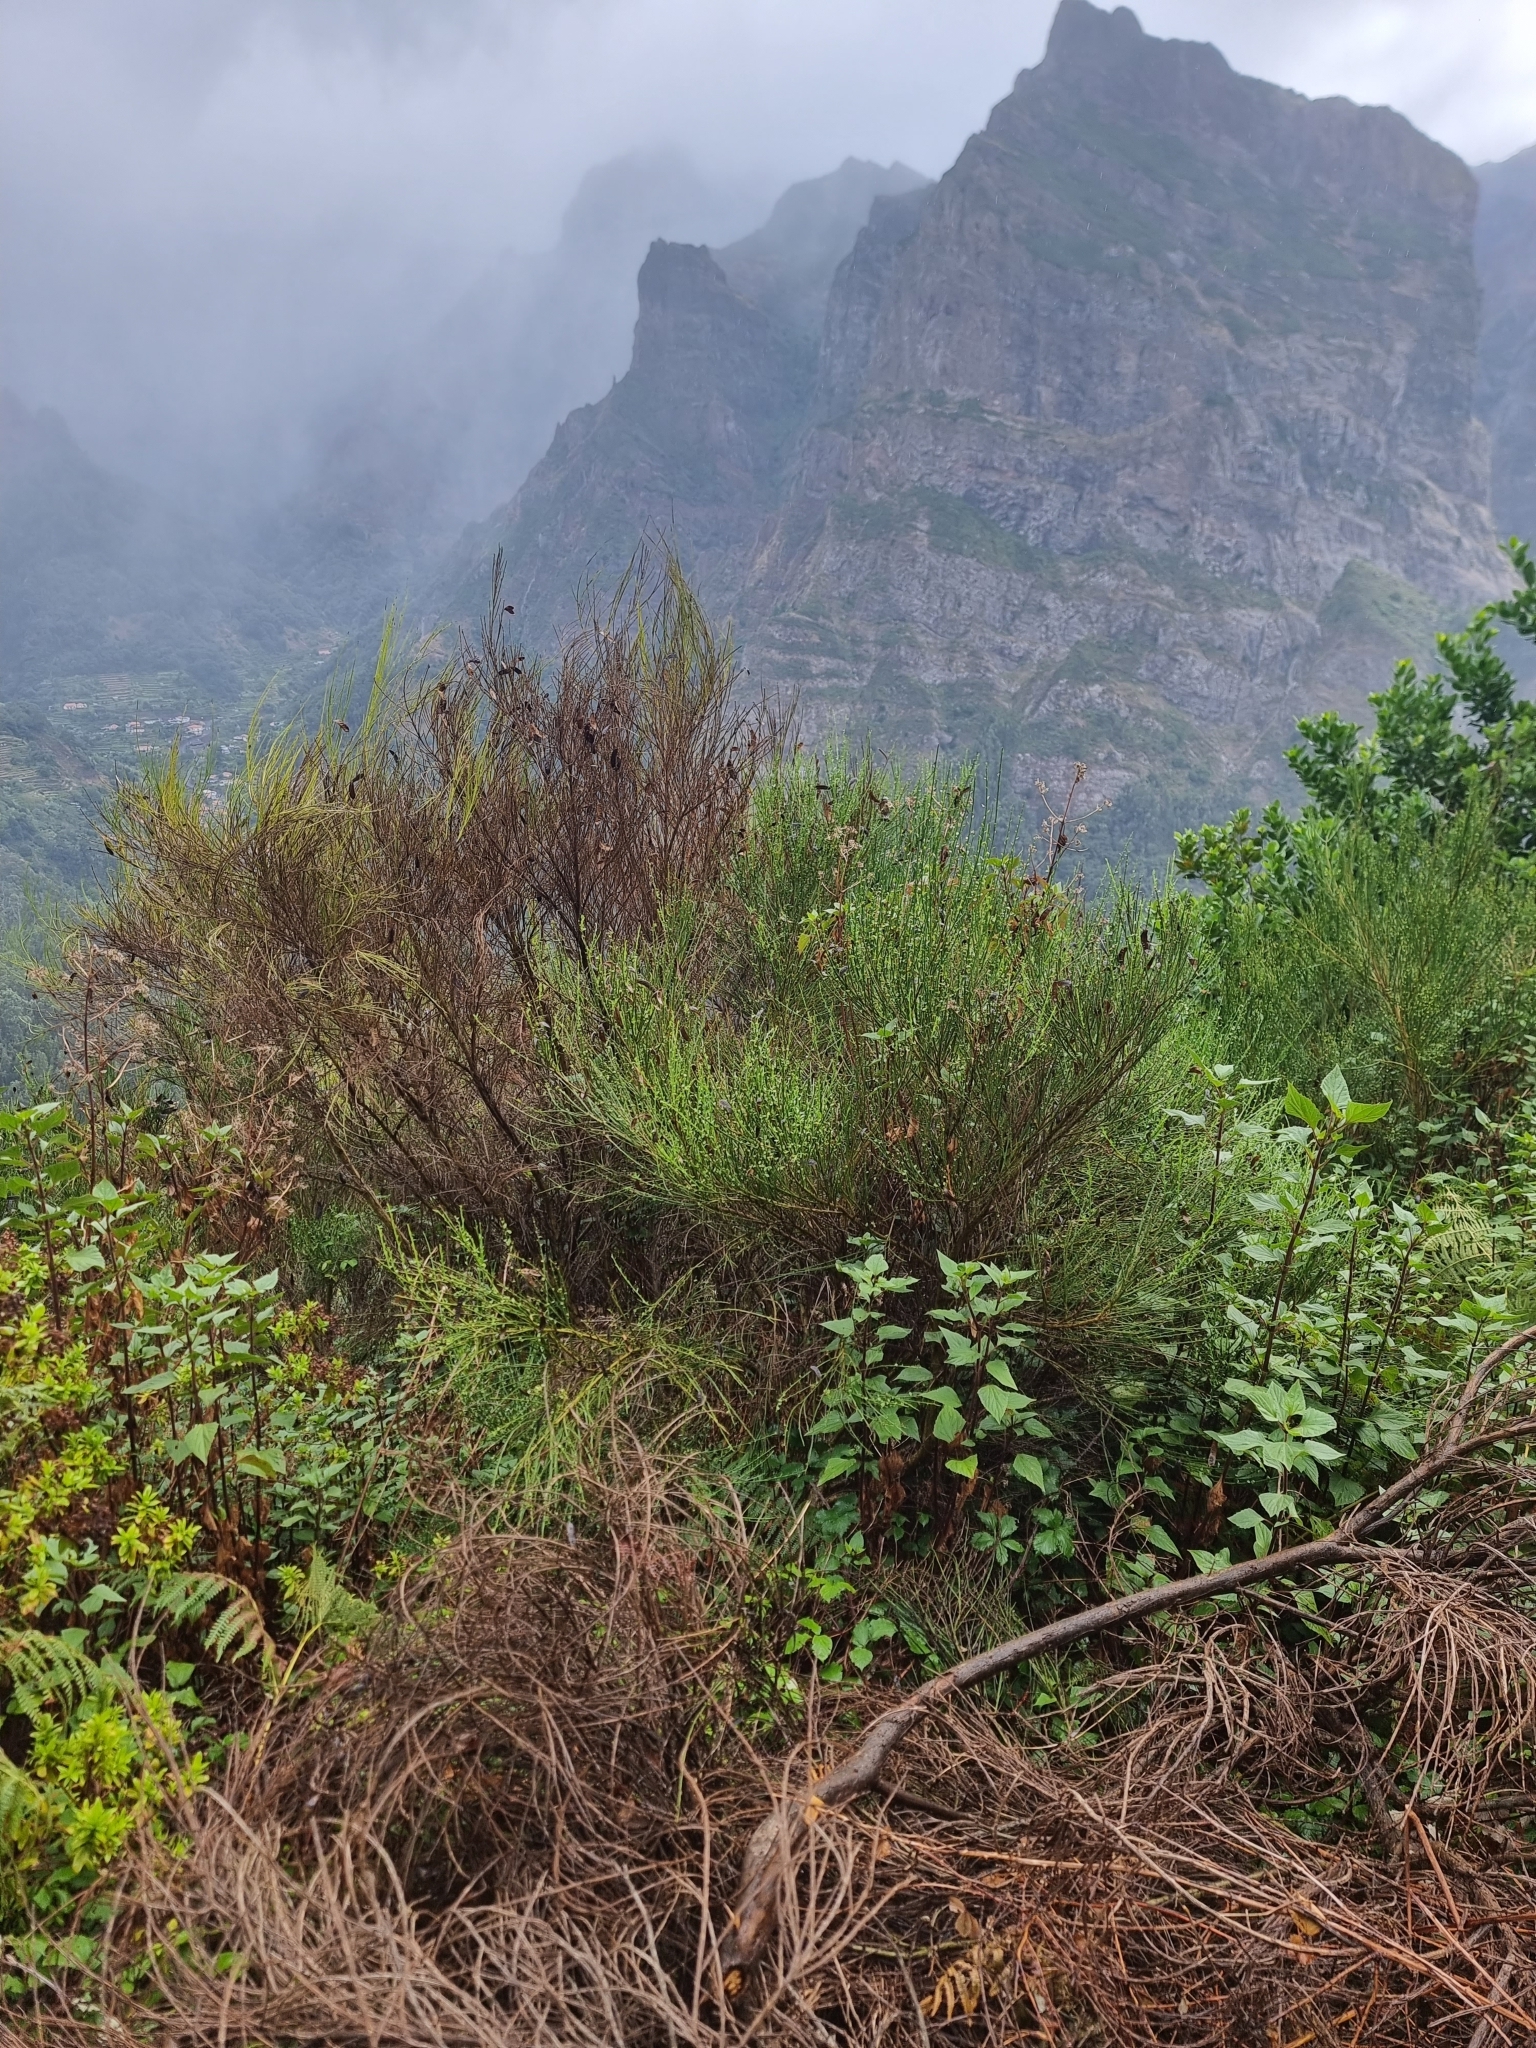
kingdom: Plantae
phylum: Tracheophyta
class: Magnoliopsida
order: Fabales
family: Fabaceae
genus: Cytisus
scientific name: Cytisus scoparius
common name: Scotch broom
